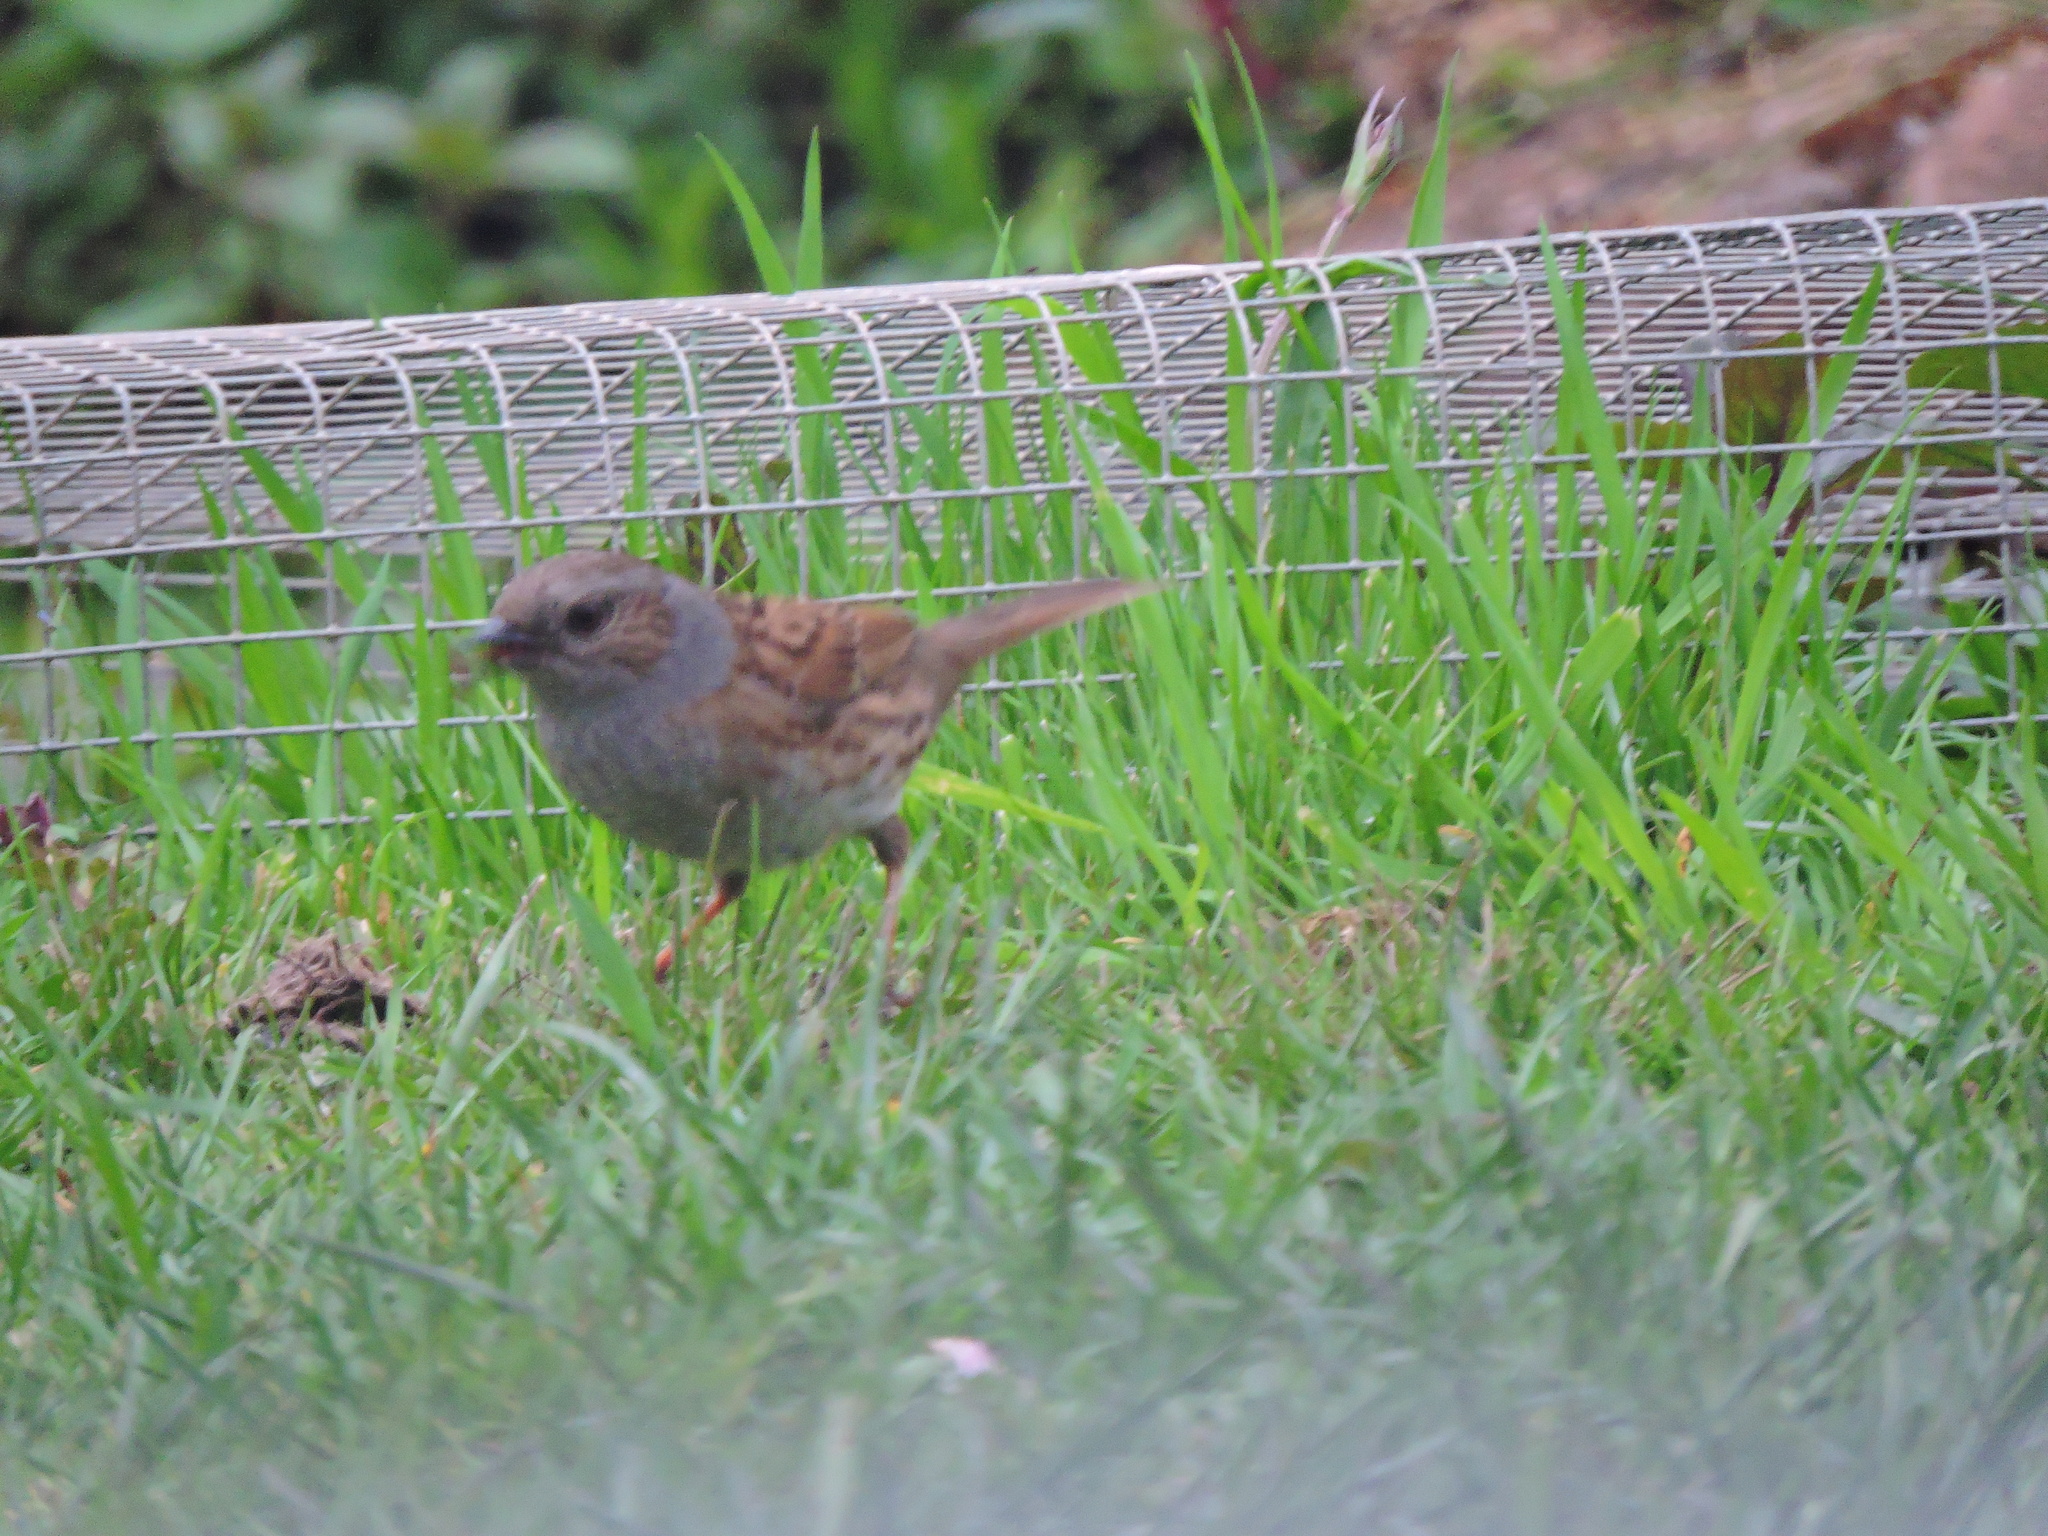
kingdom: Animalia
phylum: Chordata
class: Aves
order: Passeriformes
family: Prunellidae
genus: Prunella
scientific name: Prunella modularis
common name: Dunnock
